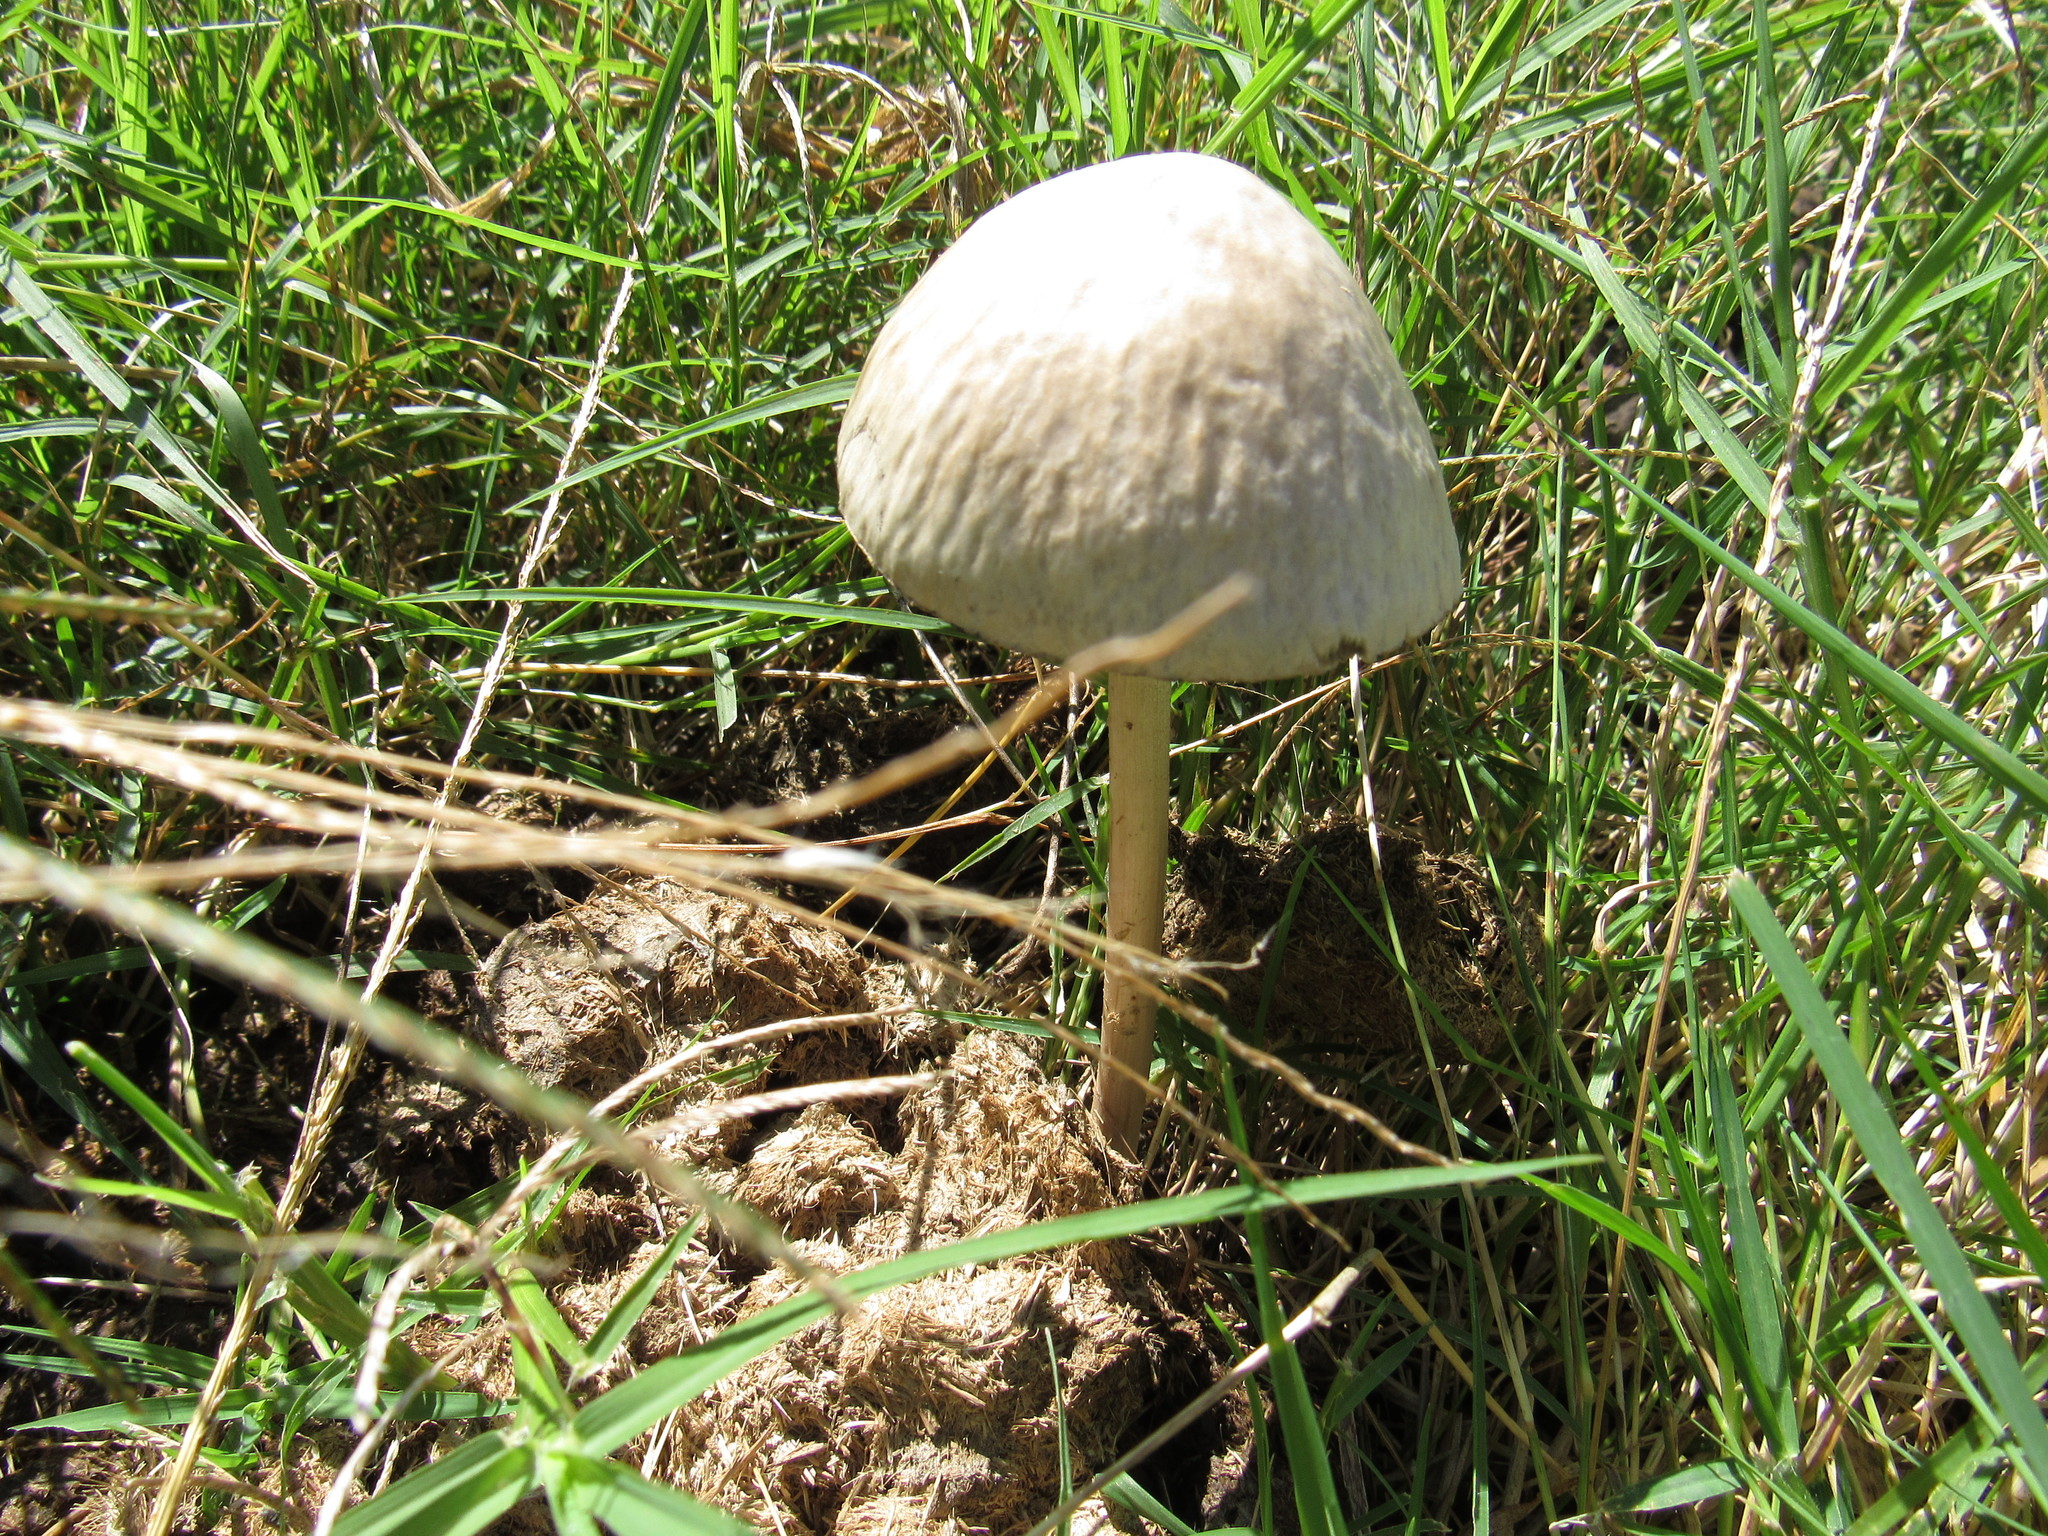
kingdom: Fungi
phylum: Basidiomycota
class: Agaricomycetes
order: Agaricales
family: Bolbitiaceae
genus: Panaeolus
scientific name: Panaeolus antillarum
